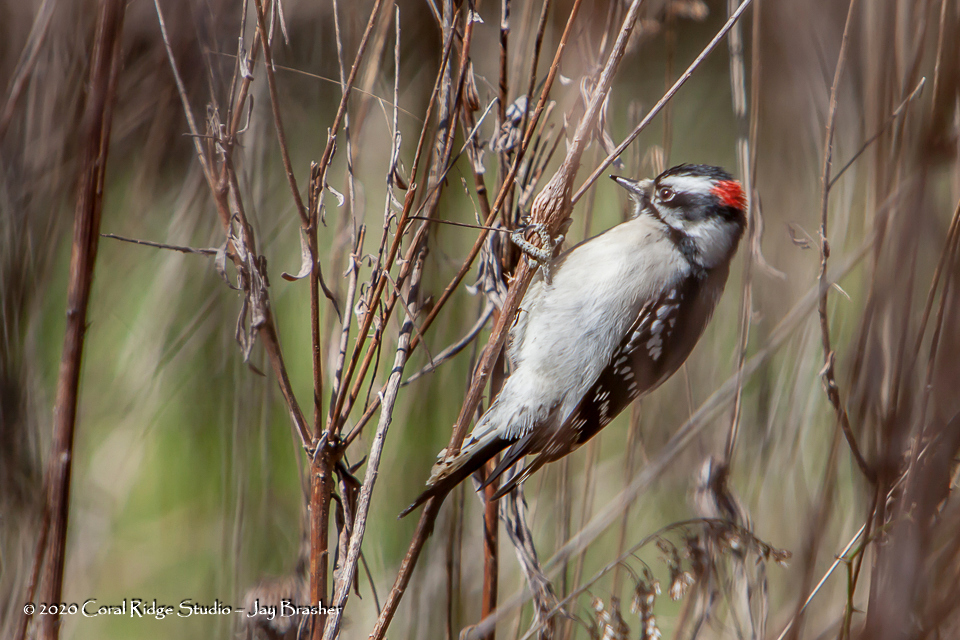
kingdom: Animalia
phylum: Chordata
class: Aves
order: Piciformes
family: Picidae
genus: Dryobates
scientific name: Dryobates pubescens
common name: Downy woodpecker
